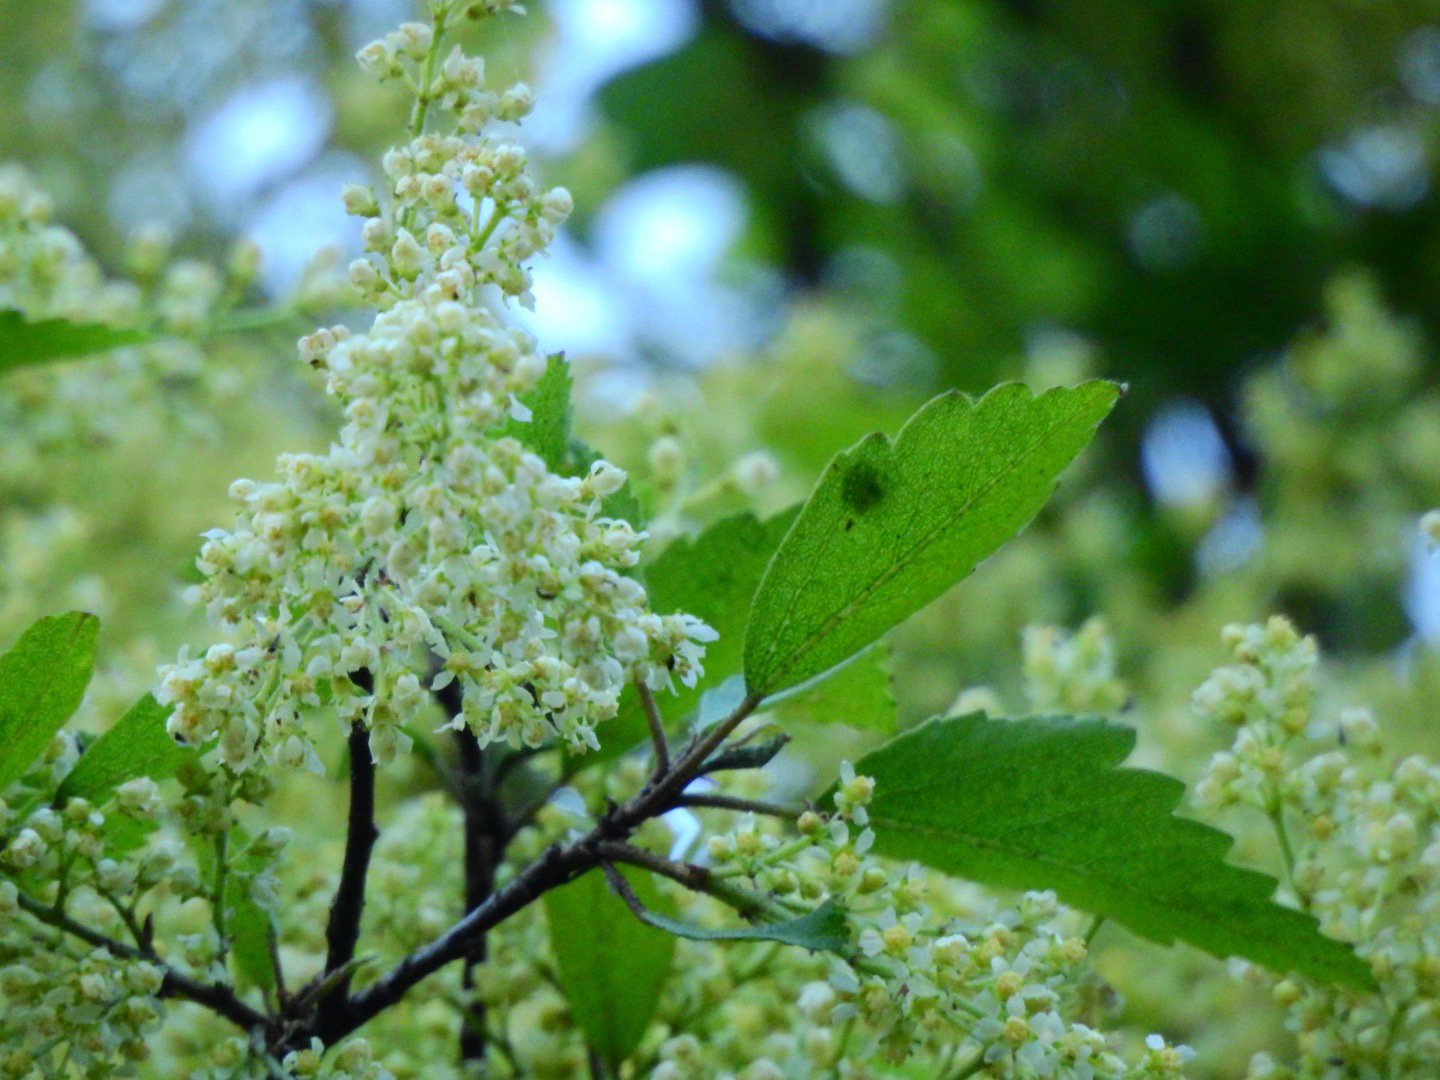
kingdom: Plantae
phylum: Tracheophyta
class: Magnoliopsida
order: Malvales
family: Malvaceae
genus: Plagianthus
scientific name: Plagianthus regius
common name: Manatu
